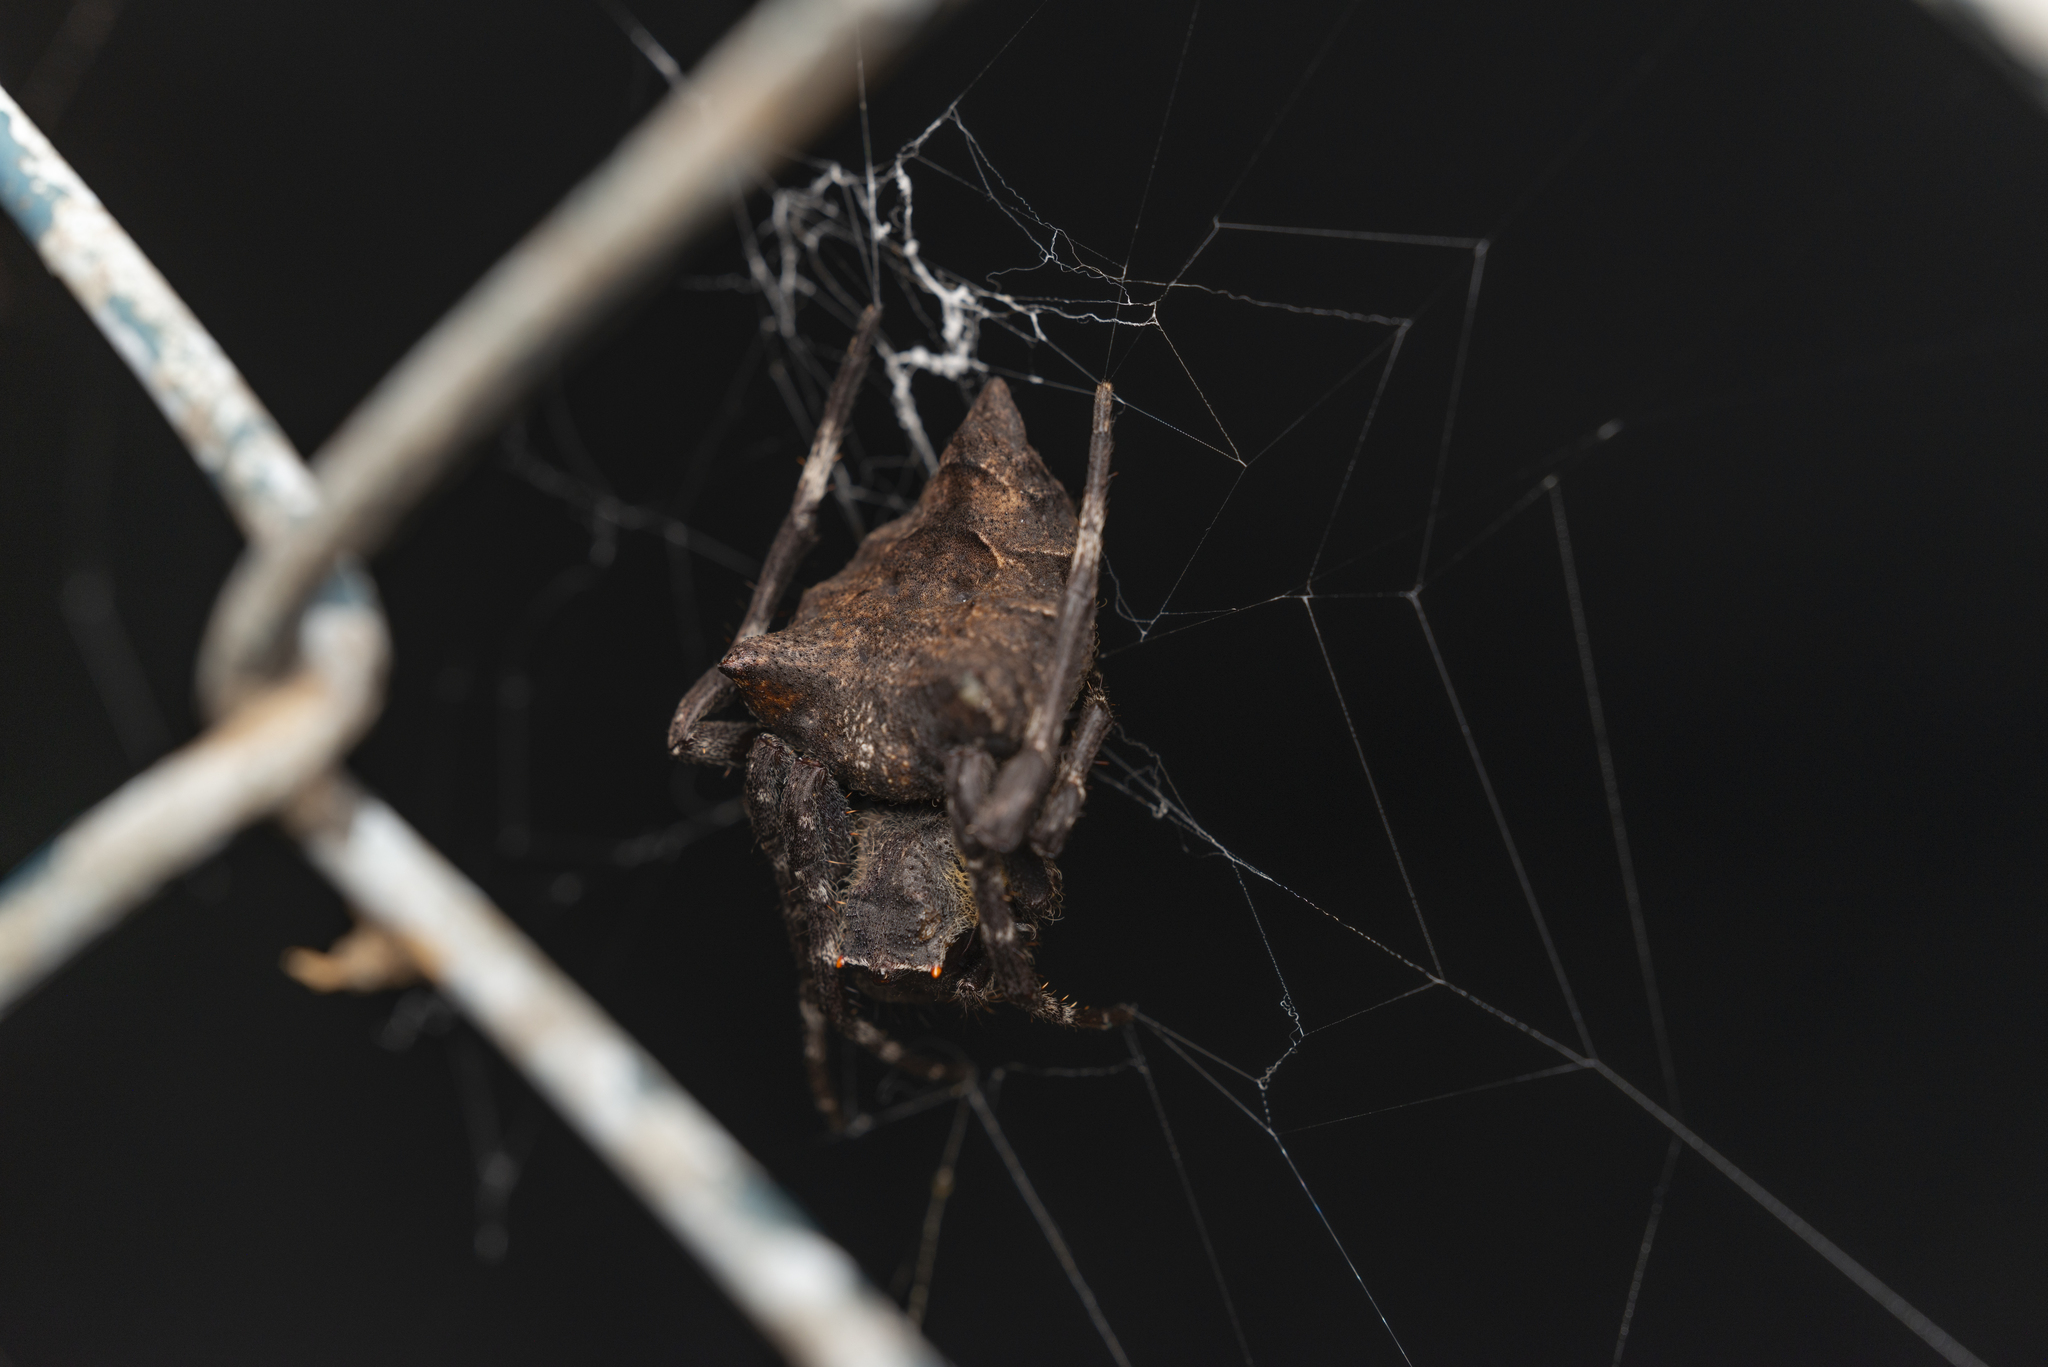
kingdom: Animalia
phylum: Arthropoda
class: Arachnida
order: Araneae
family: Araneidae
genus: Parawixia
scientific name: Parawixia dehaani
